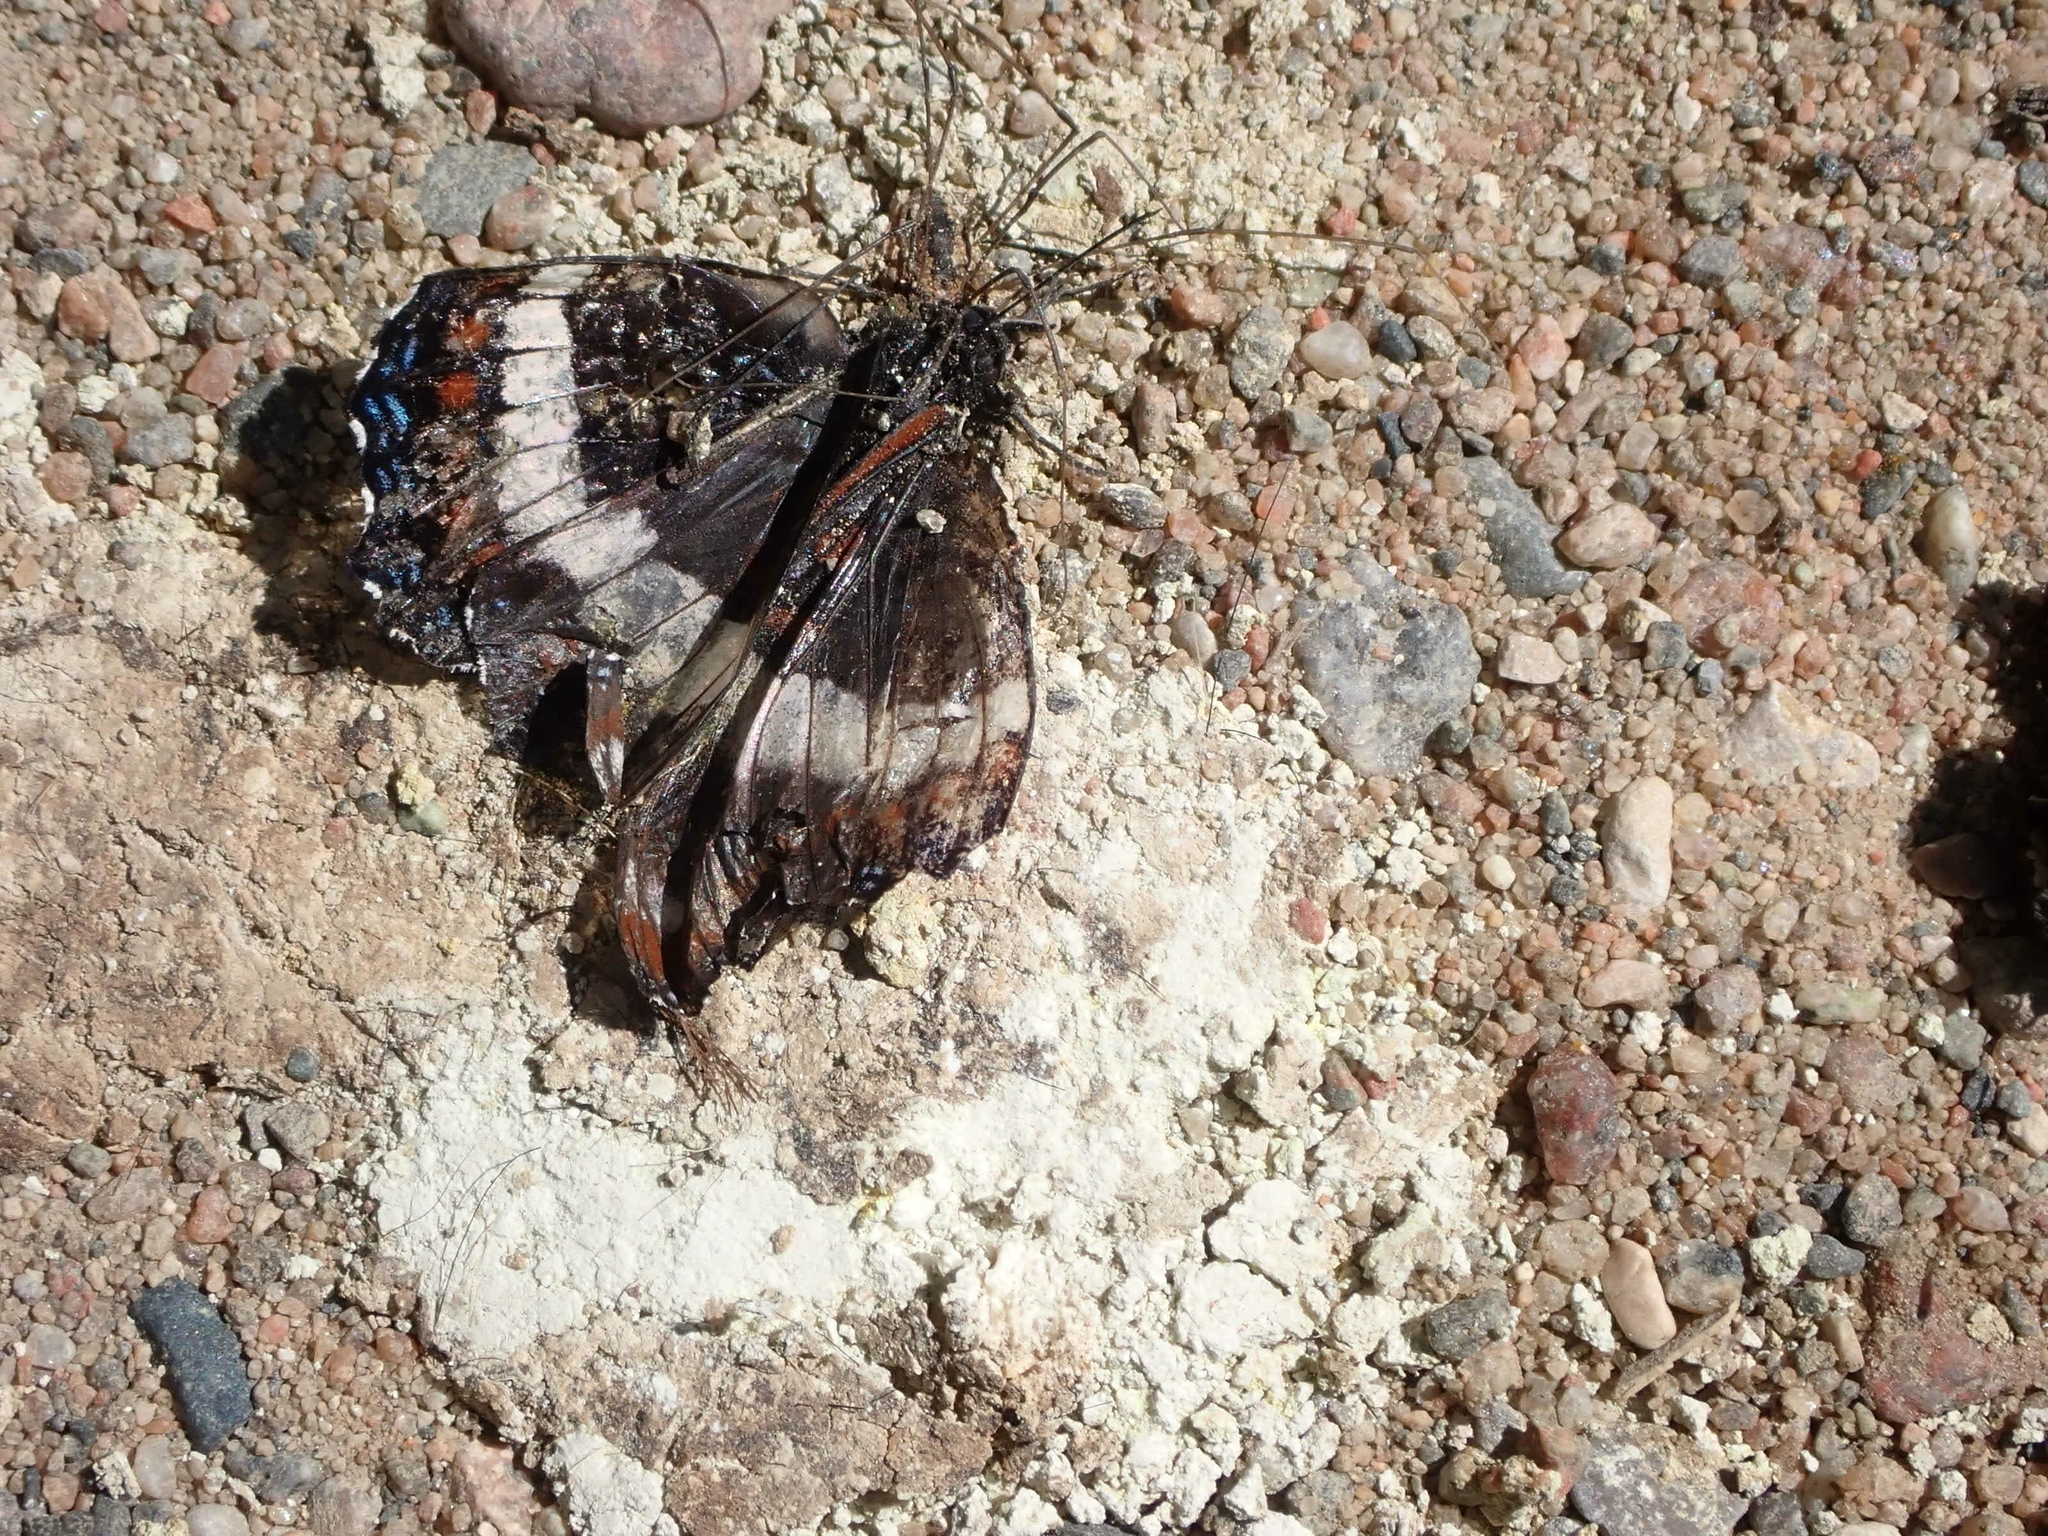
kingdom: Animalia
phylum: Arthropoda
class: Insecta
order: Lepidoptera
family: Nymphalidae
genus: Limenitis
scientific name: Limenitis arthemis
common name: Red-spotted admiral
